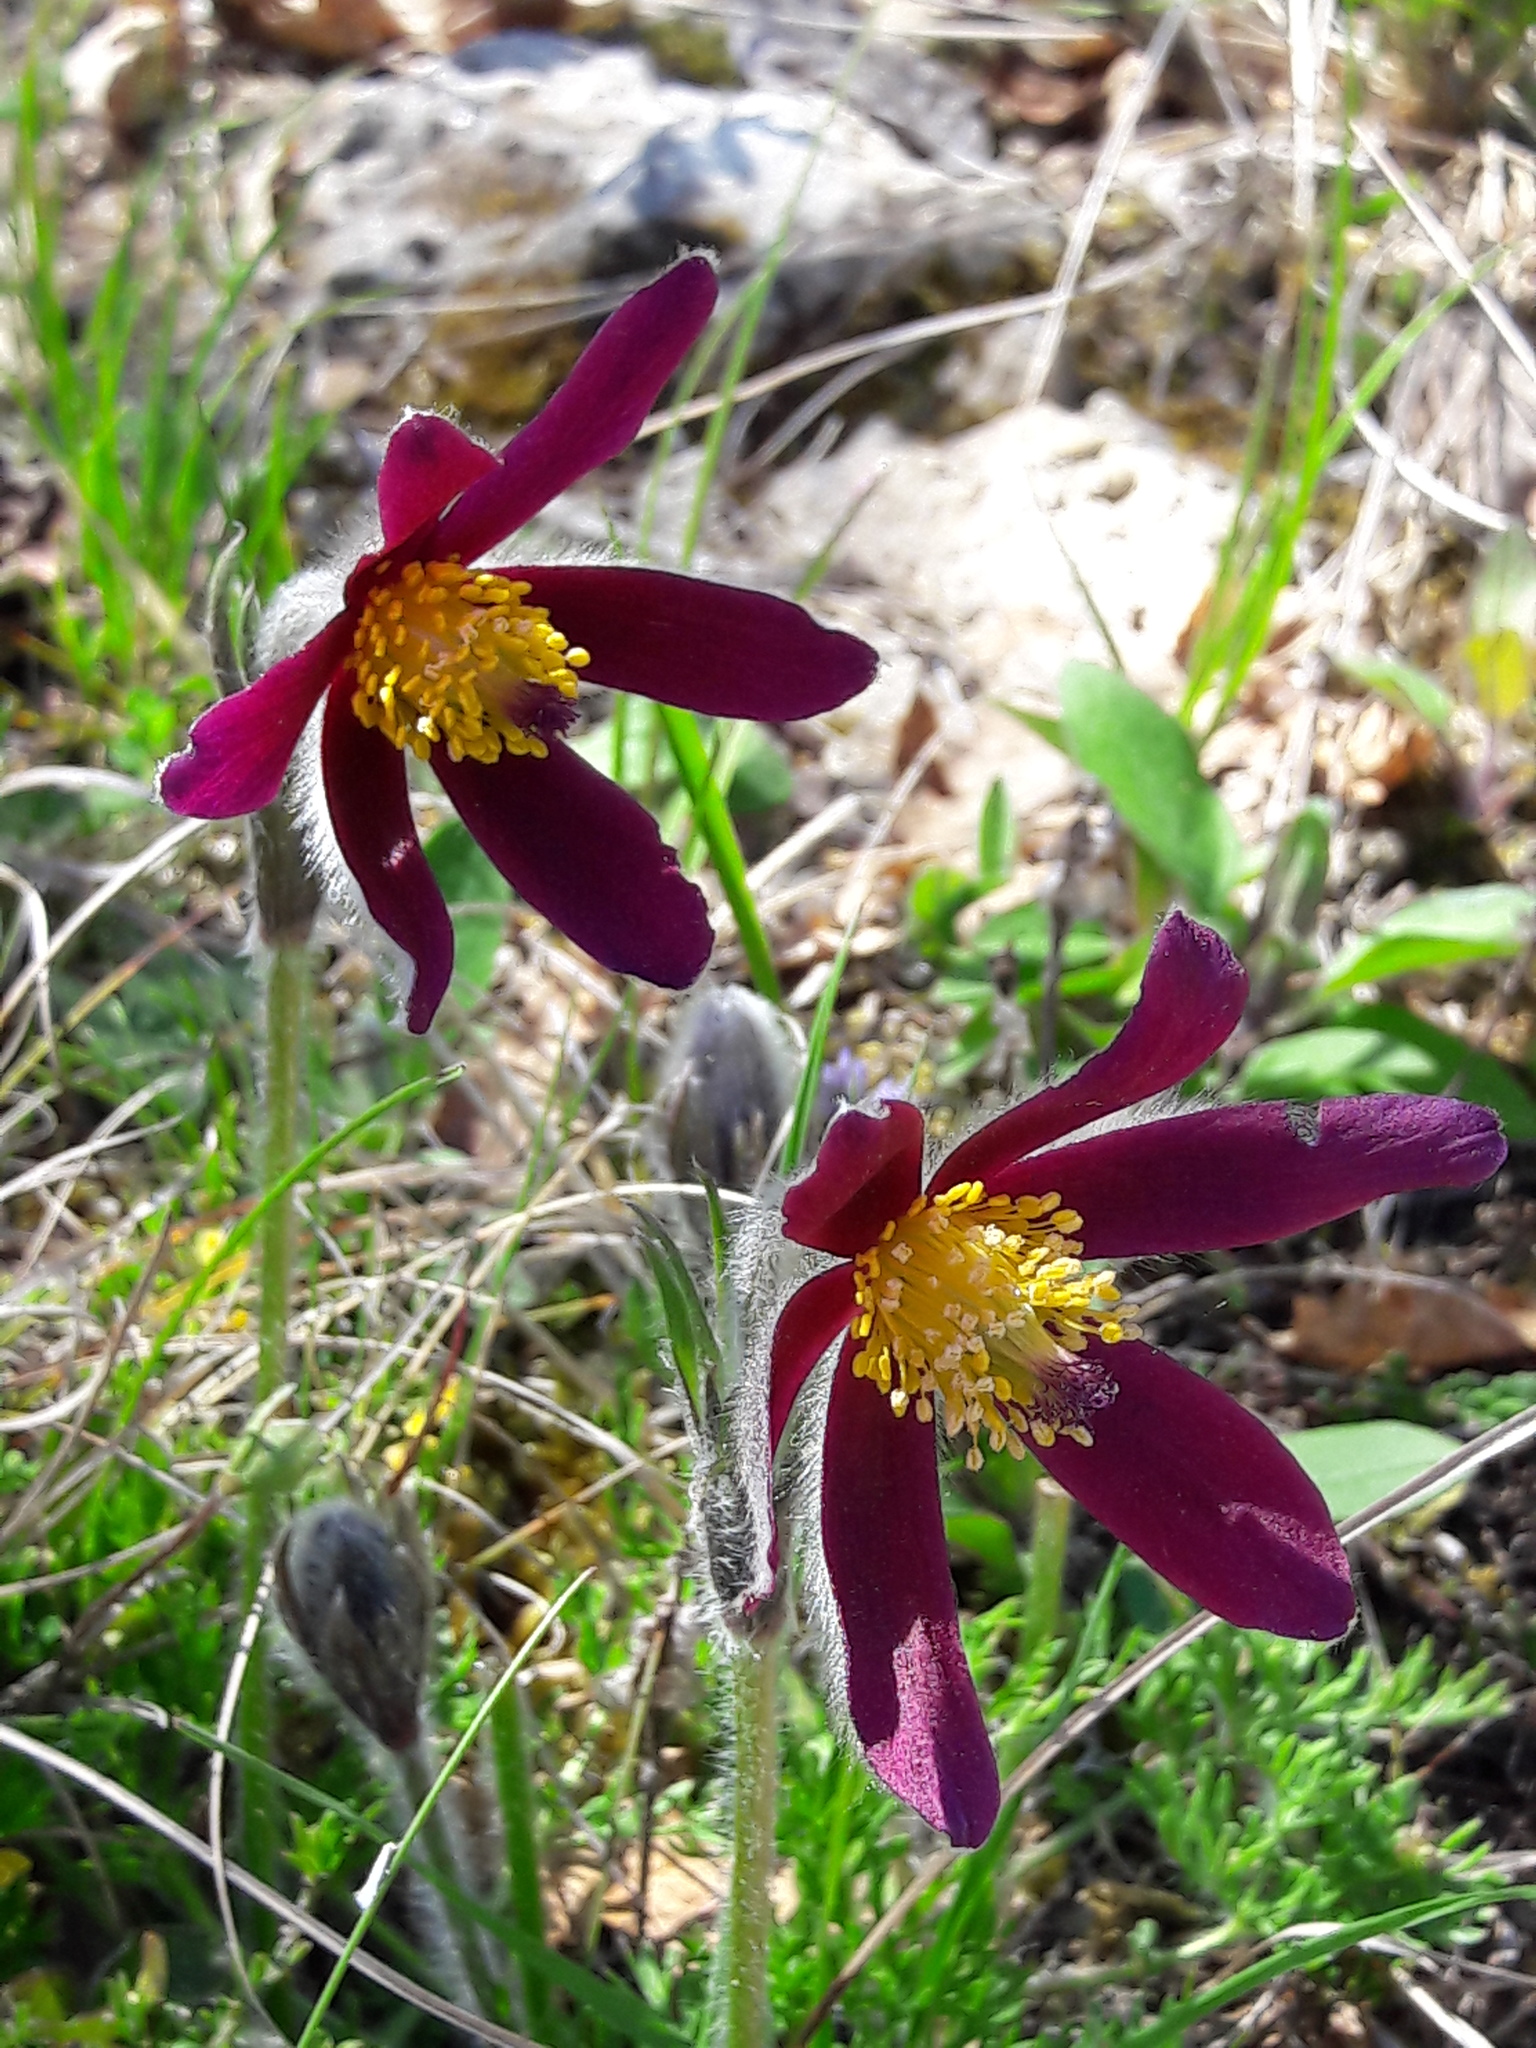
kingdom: Plantae
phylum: Tracheophyta
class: Magnoliopsida
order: Ranunculales
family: Ranunculaceae
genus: Pulsatilla
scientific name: Pulsatilla rubra
